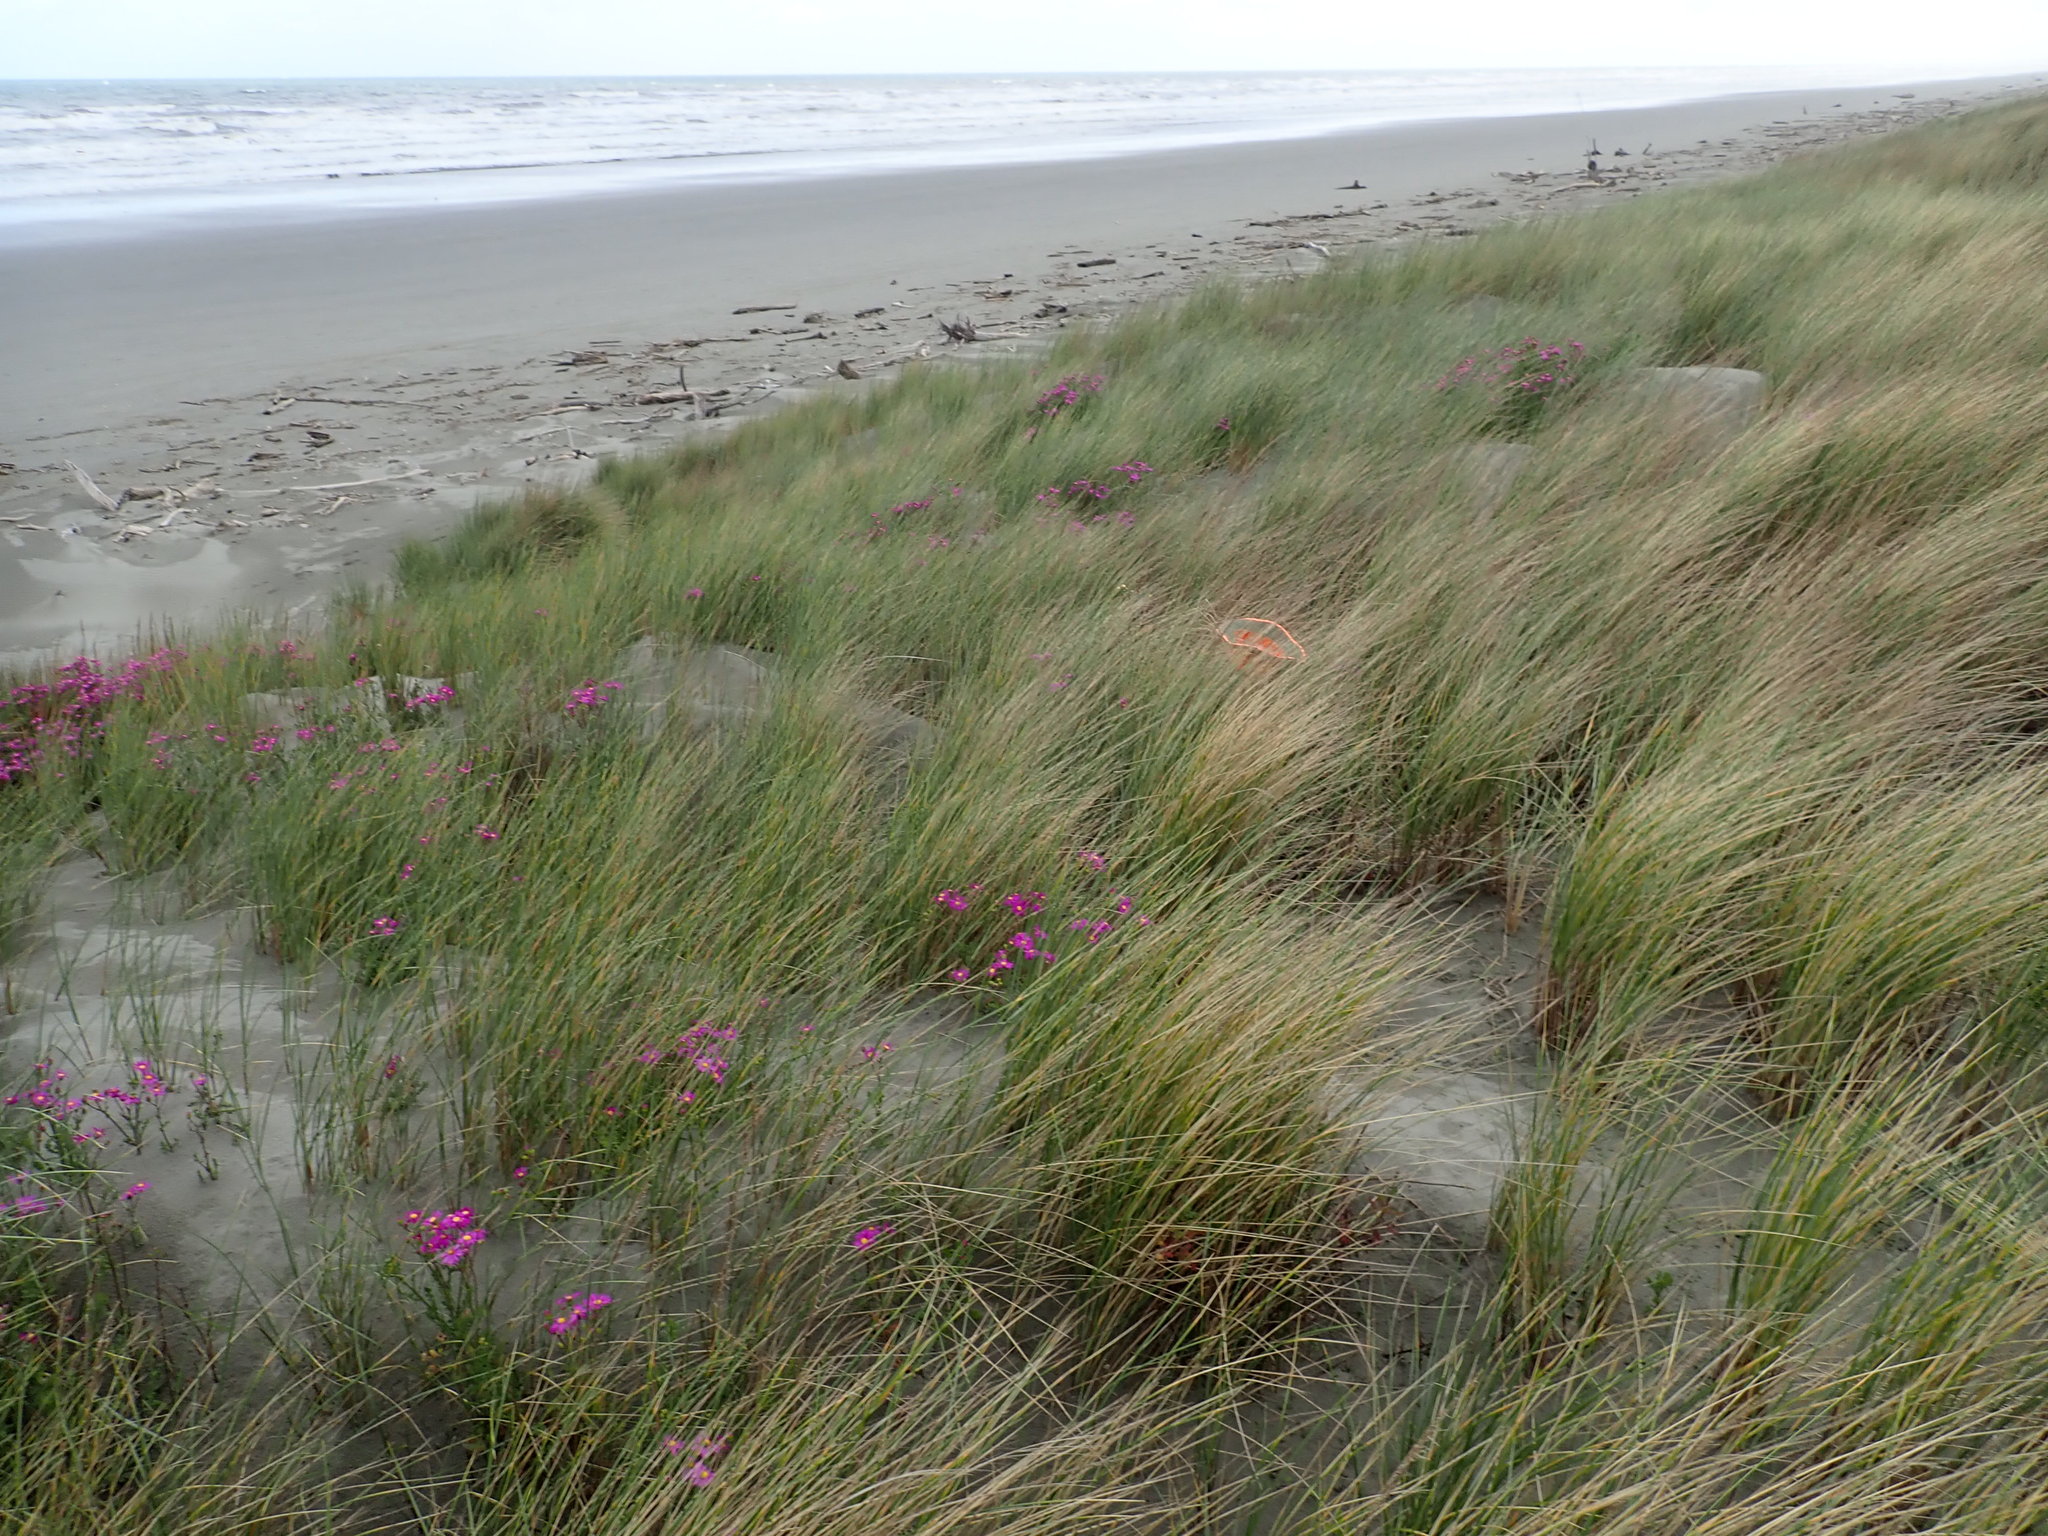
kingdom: Plantae
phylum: Tracheophyta
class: Magnoliopsida
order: Asterales
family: Asteraceae
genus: Sonchus
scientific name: Sonchus oleraceus
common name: Common sowthistle
